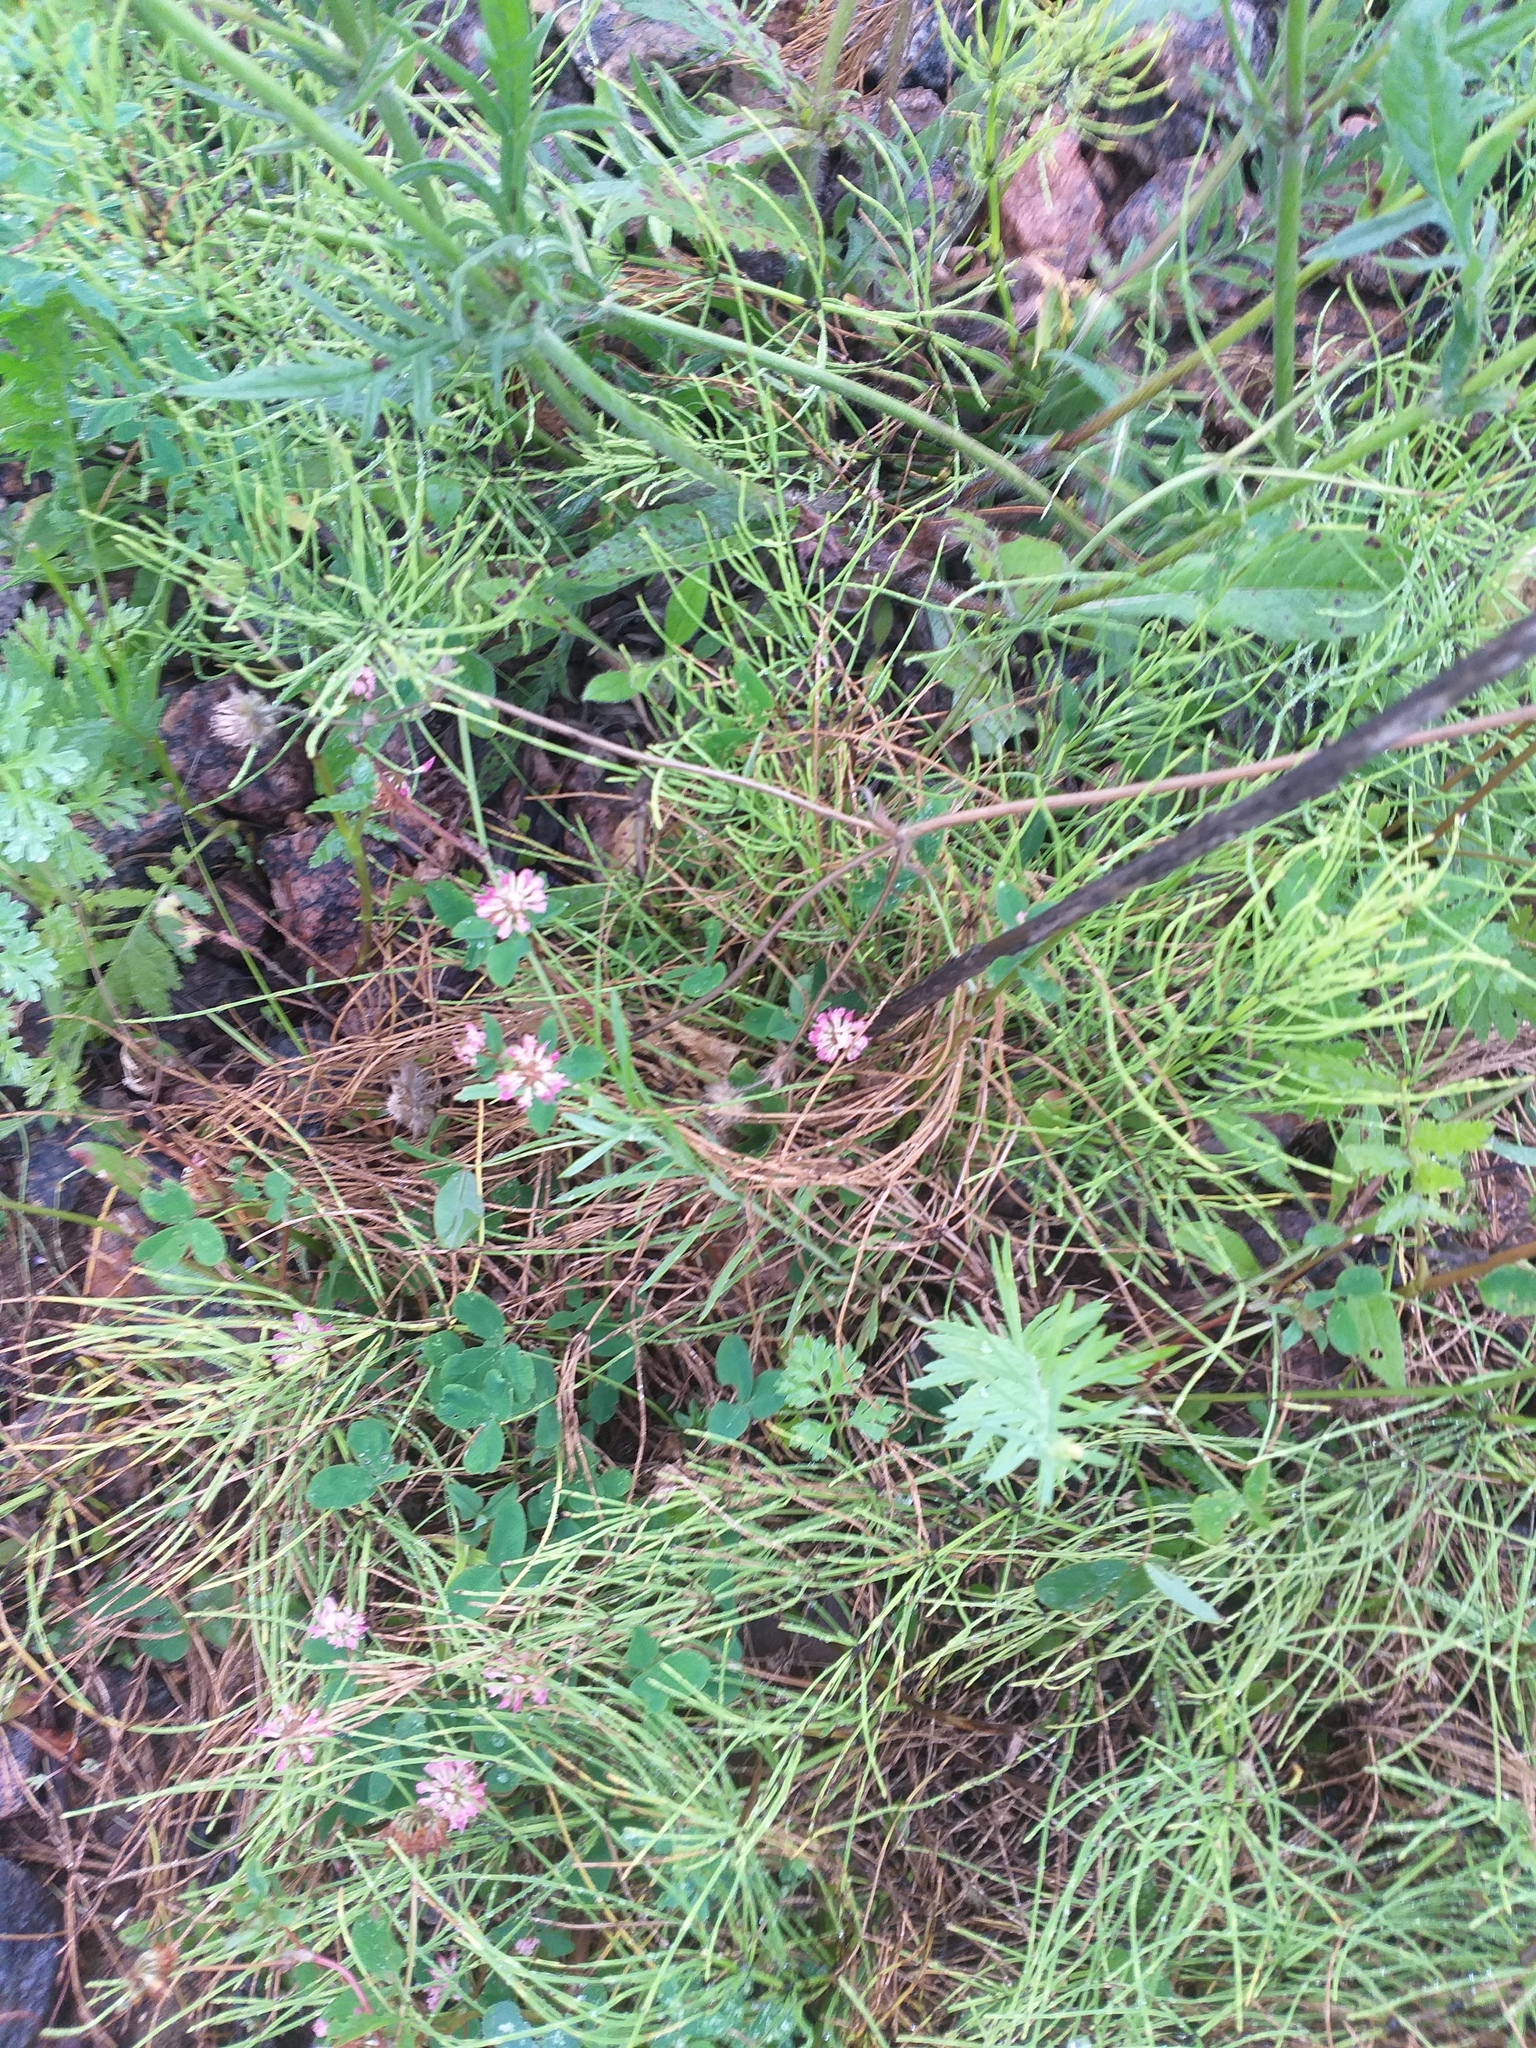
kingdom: Plantae
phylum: Tracheophyta
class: Magnoliopsida
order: Fabales
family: Fabaceae
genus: Trifolium
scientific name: Trifolium hybridum
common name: Alsike clover
